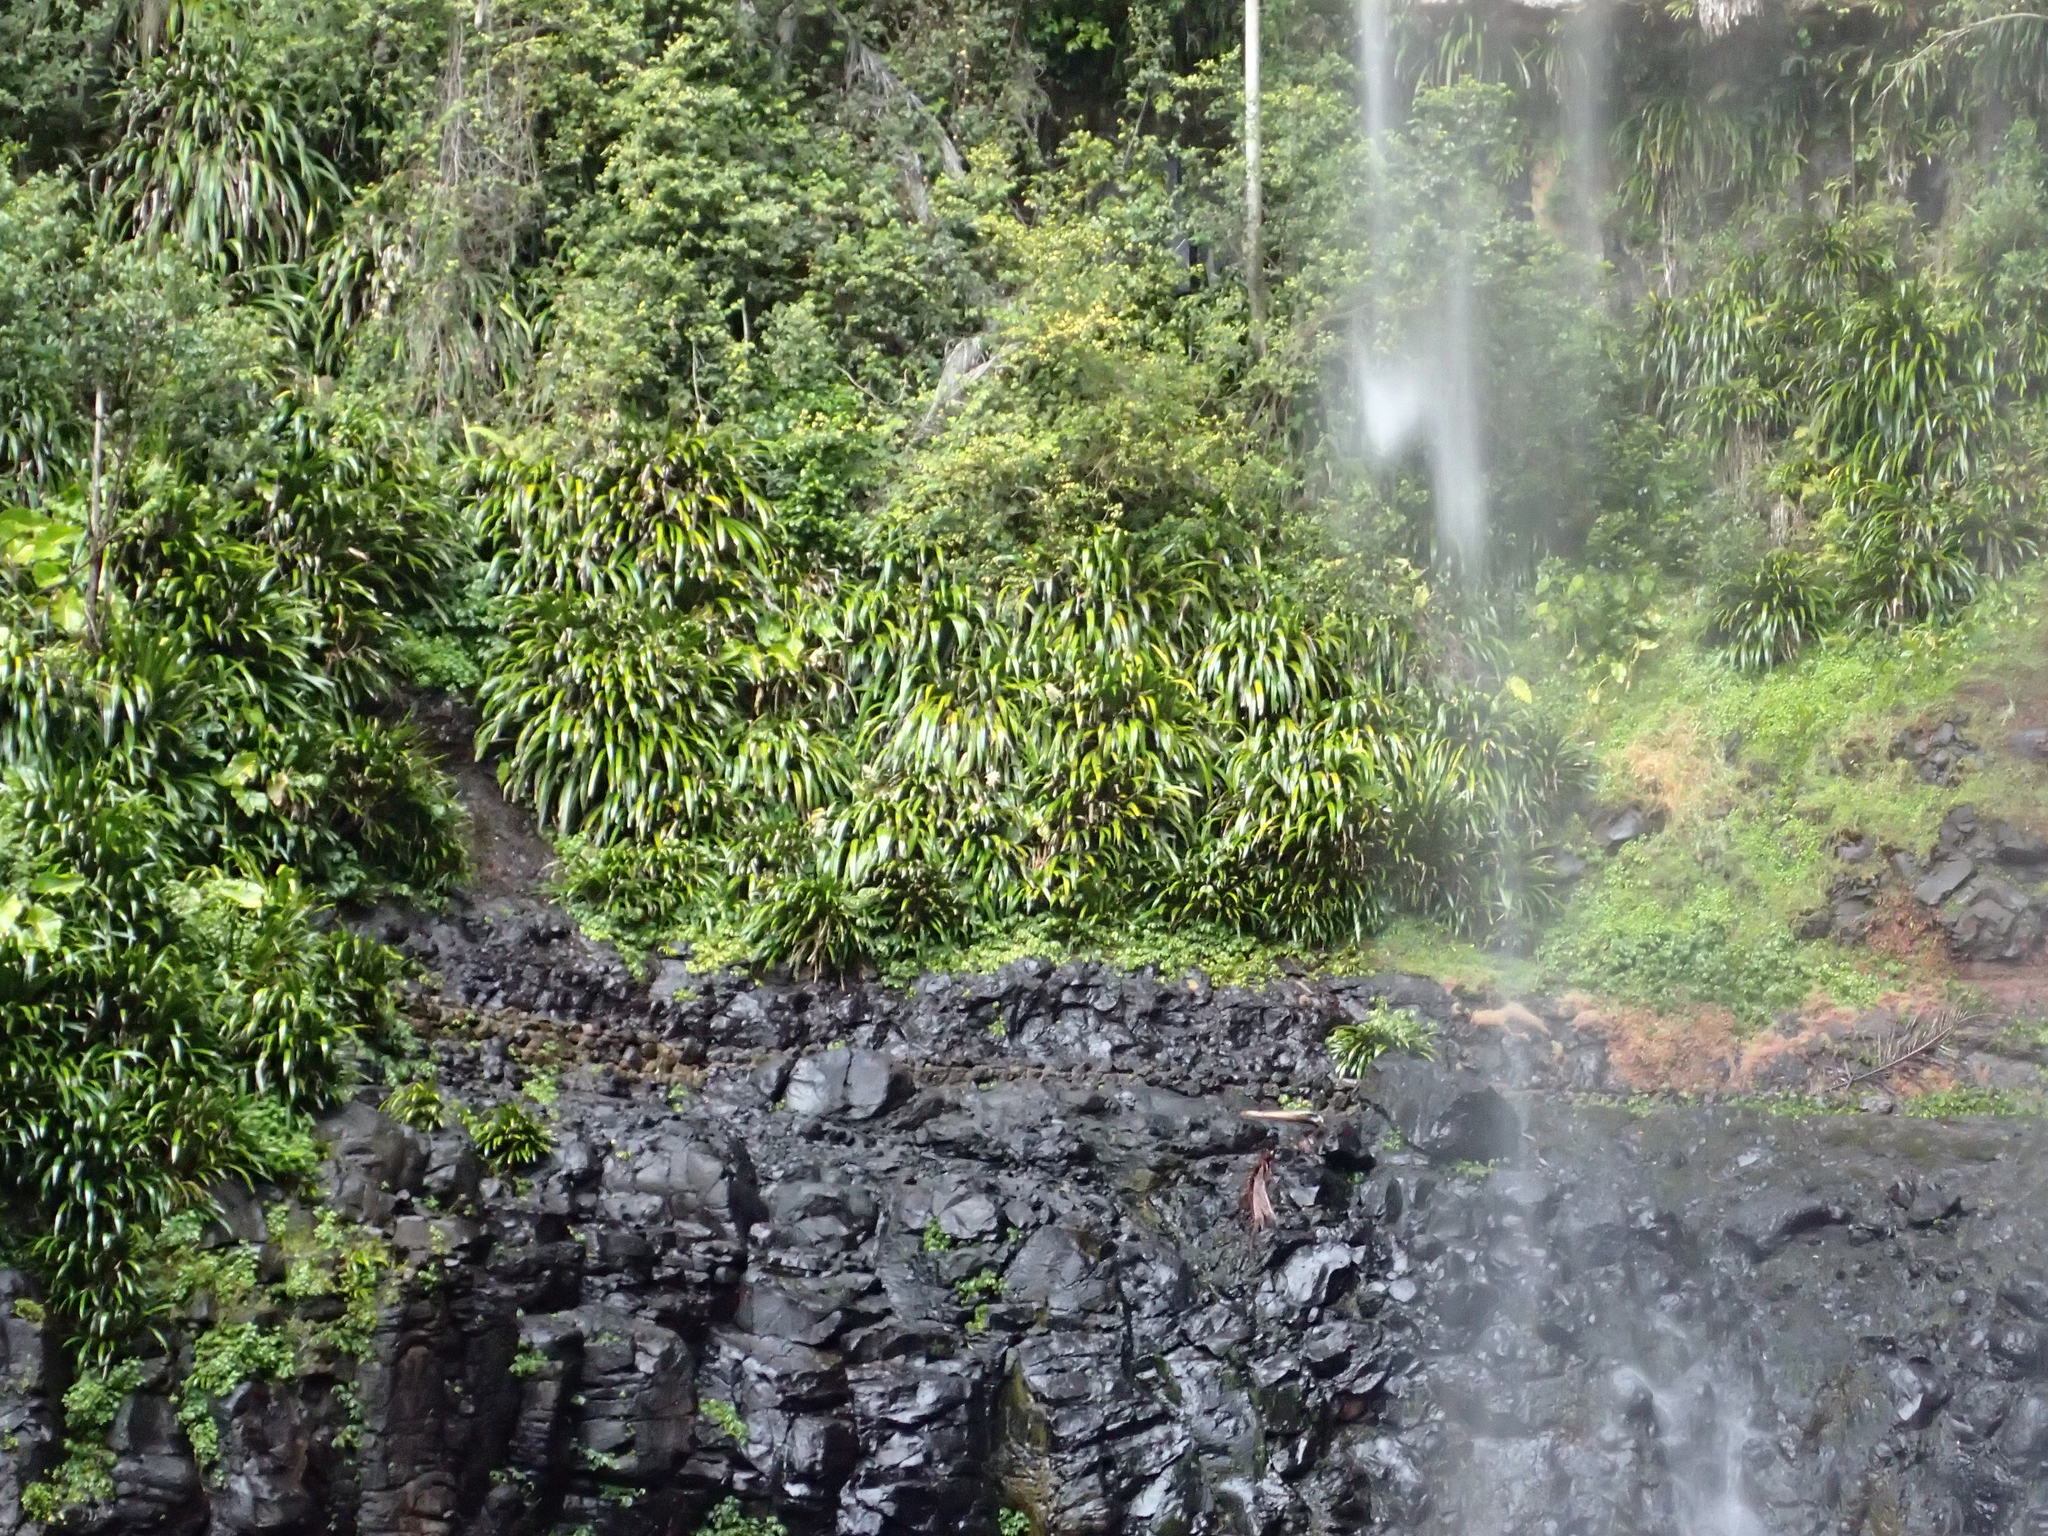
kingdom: Plantae
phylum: Tracheophyta
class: Liliopsida
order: Commelinales
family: Philydraceae
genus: Helmholtzia
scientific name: Helmholtzia glaberrima
